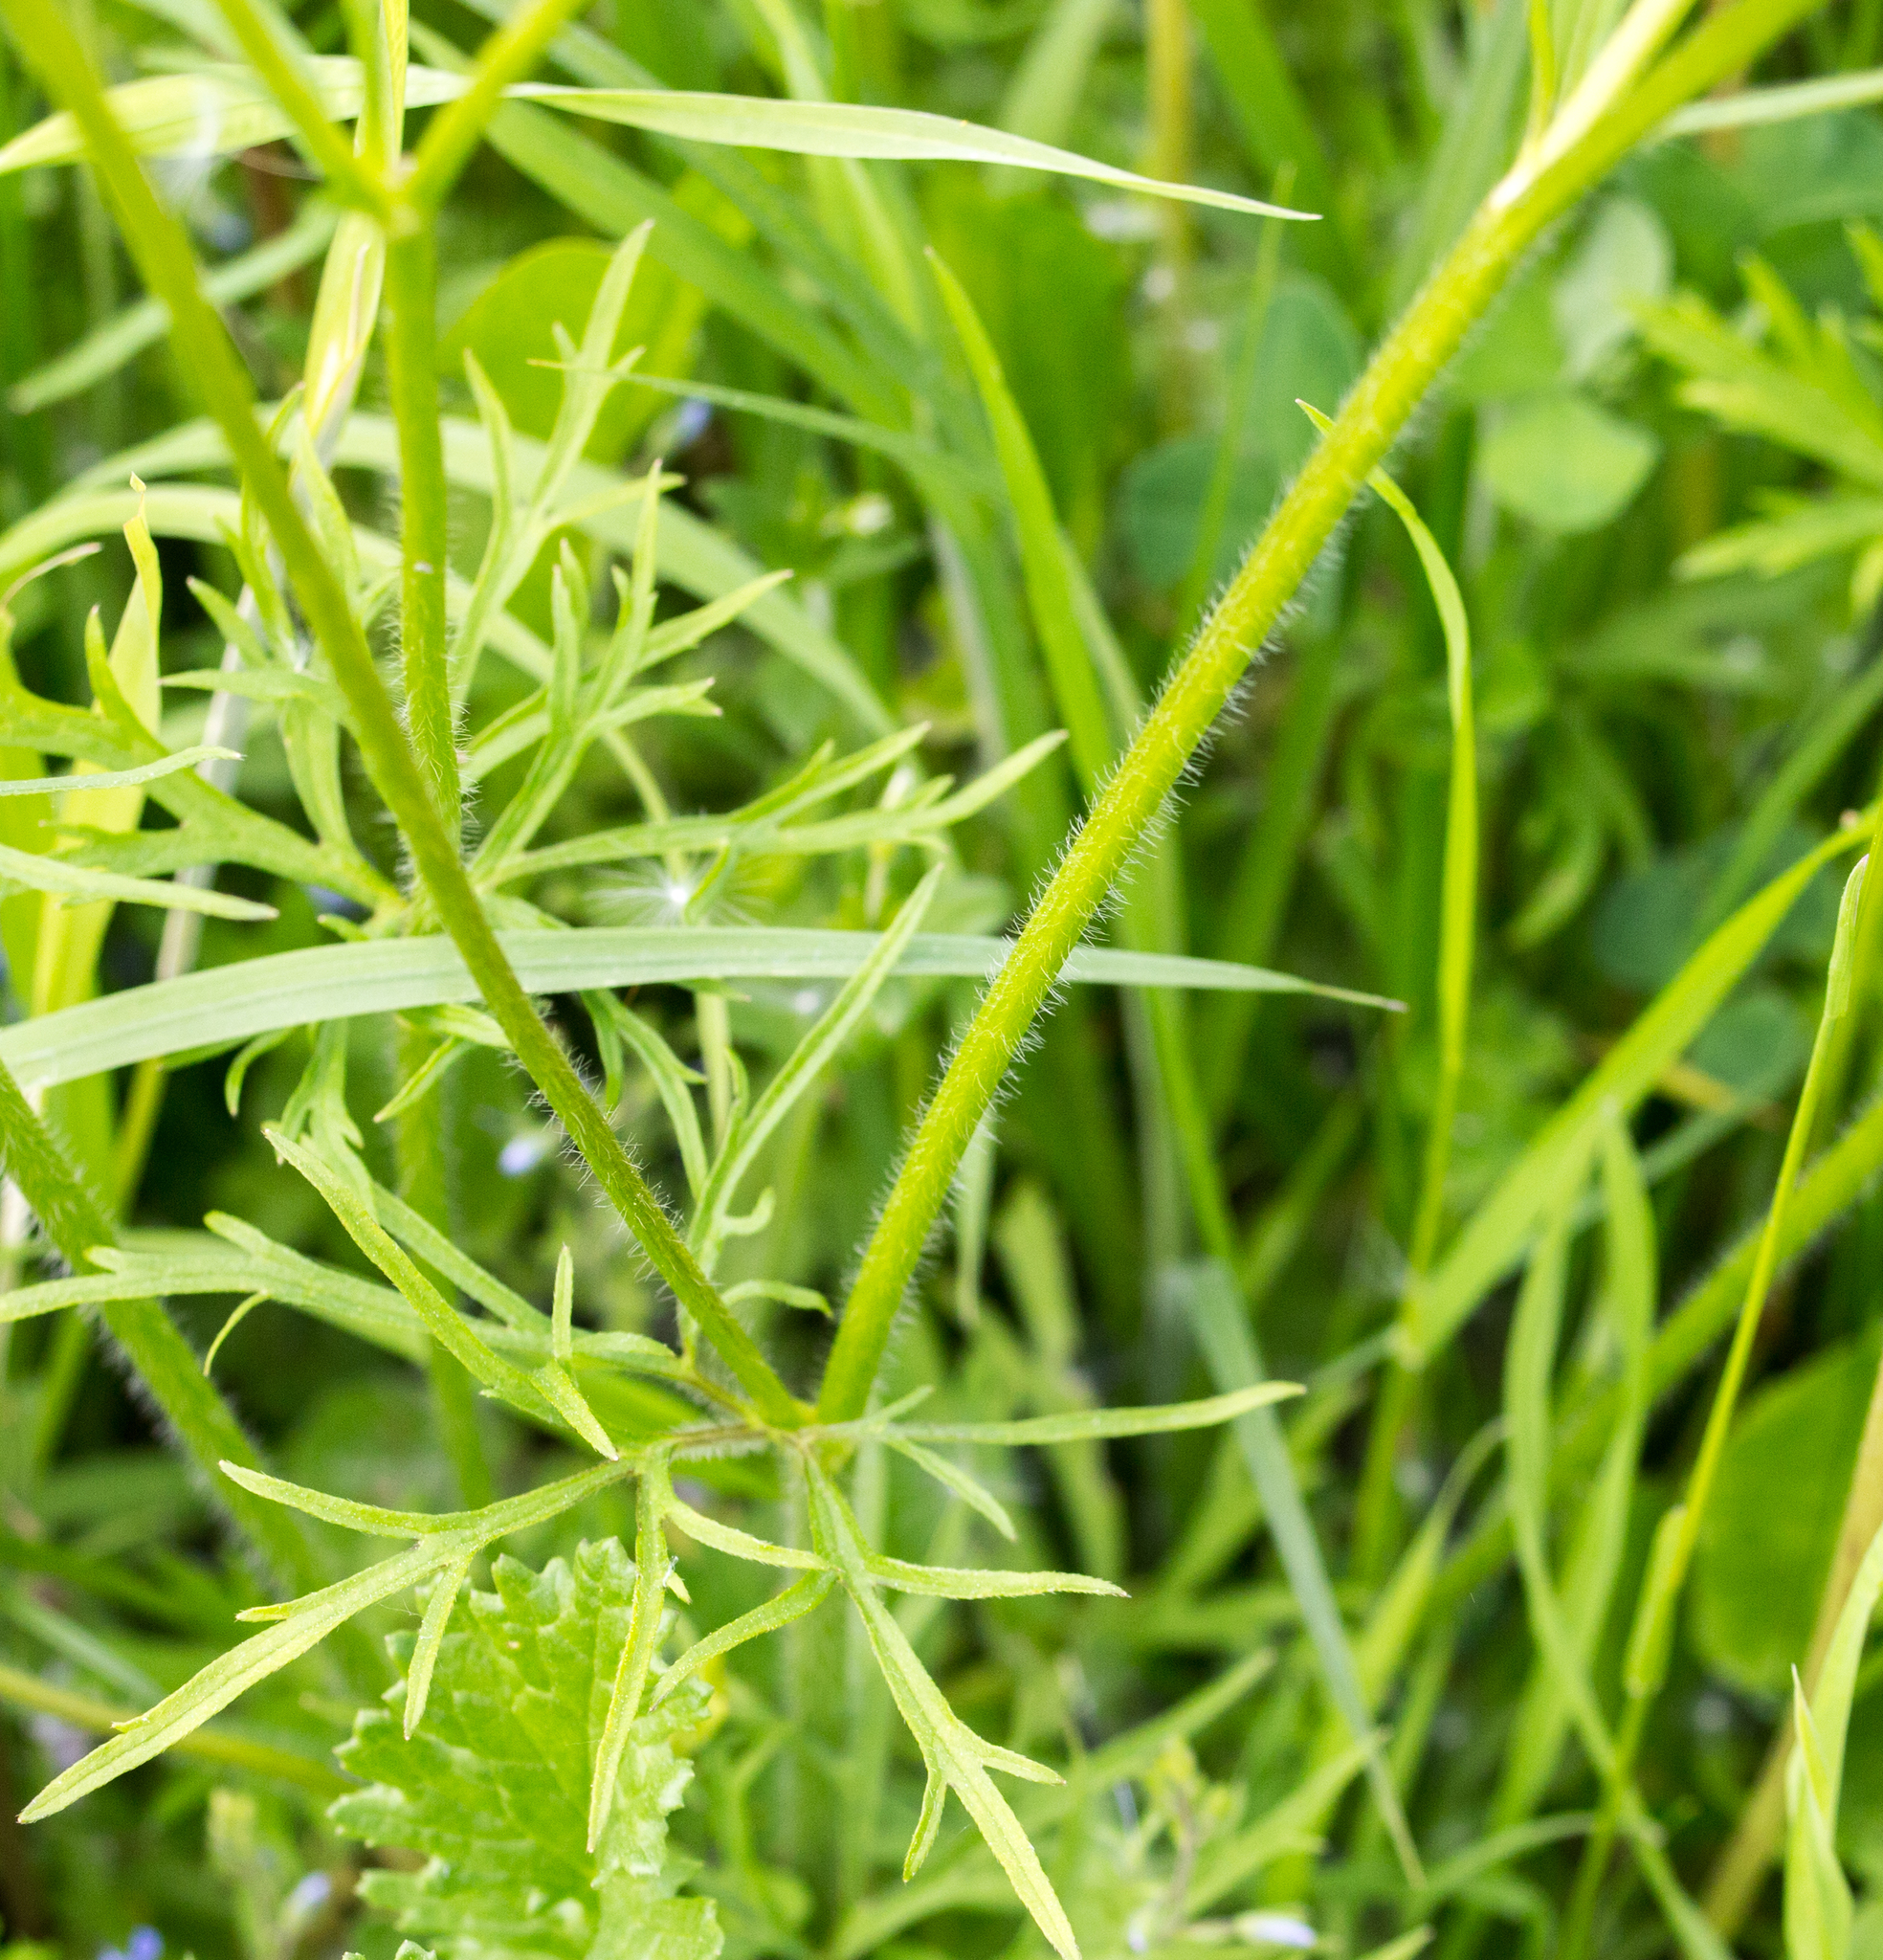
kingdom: Plantae
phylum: Tracheophyta
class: Magnoliopsida
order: Ranunculales
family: Ranunculaceae
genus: Ranunculus
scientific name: Ranunculus polyanthemos
